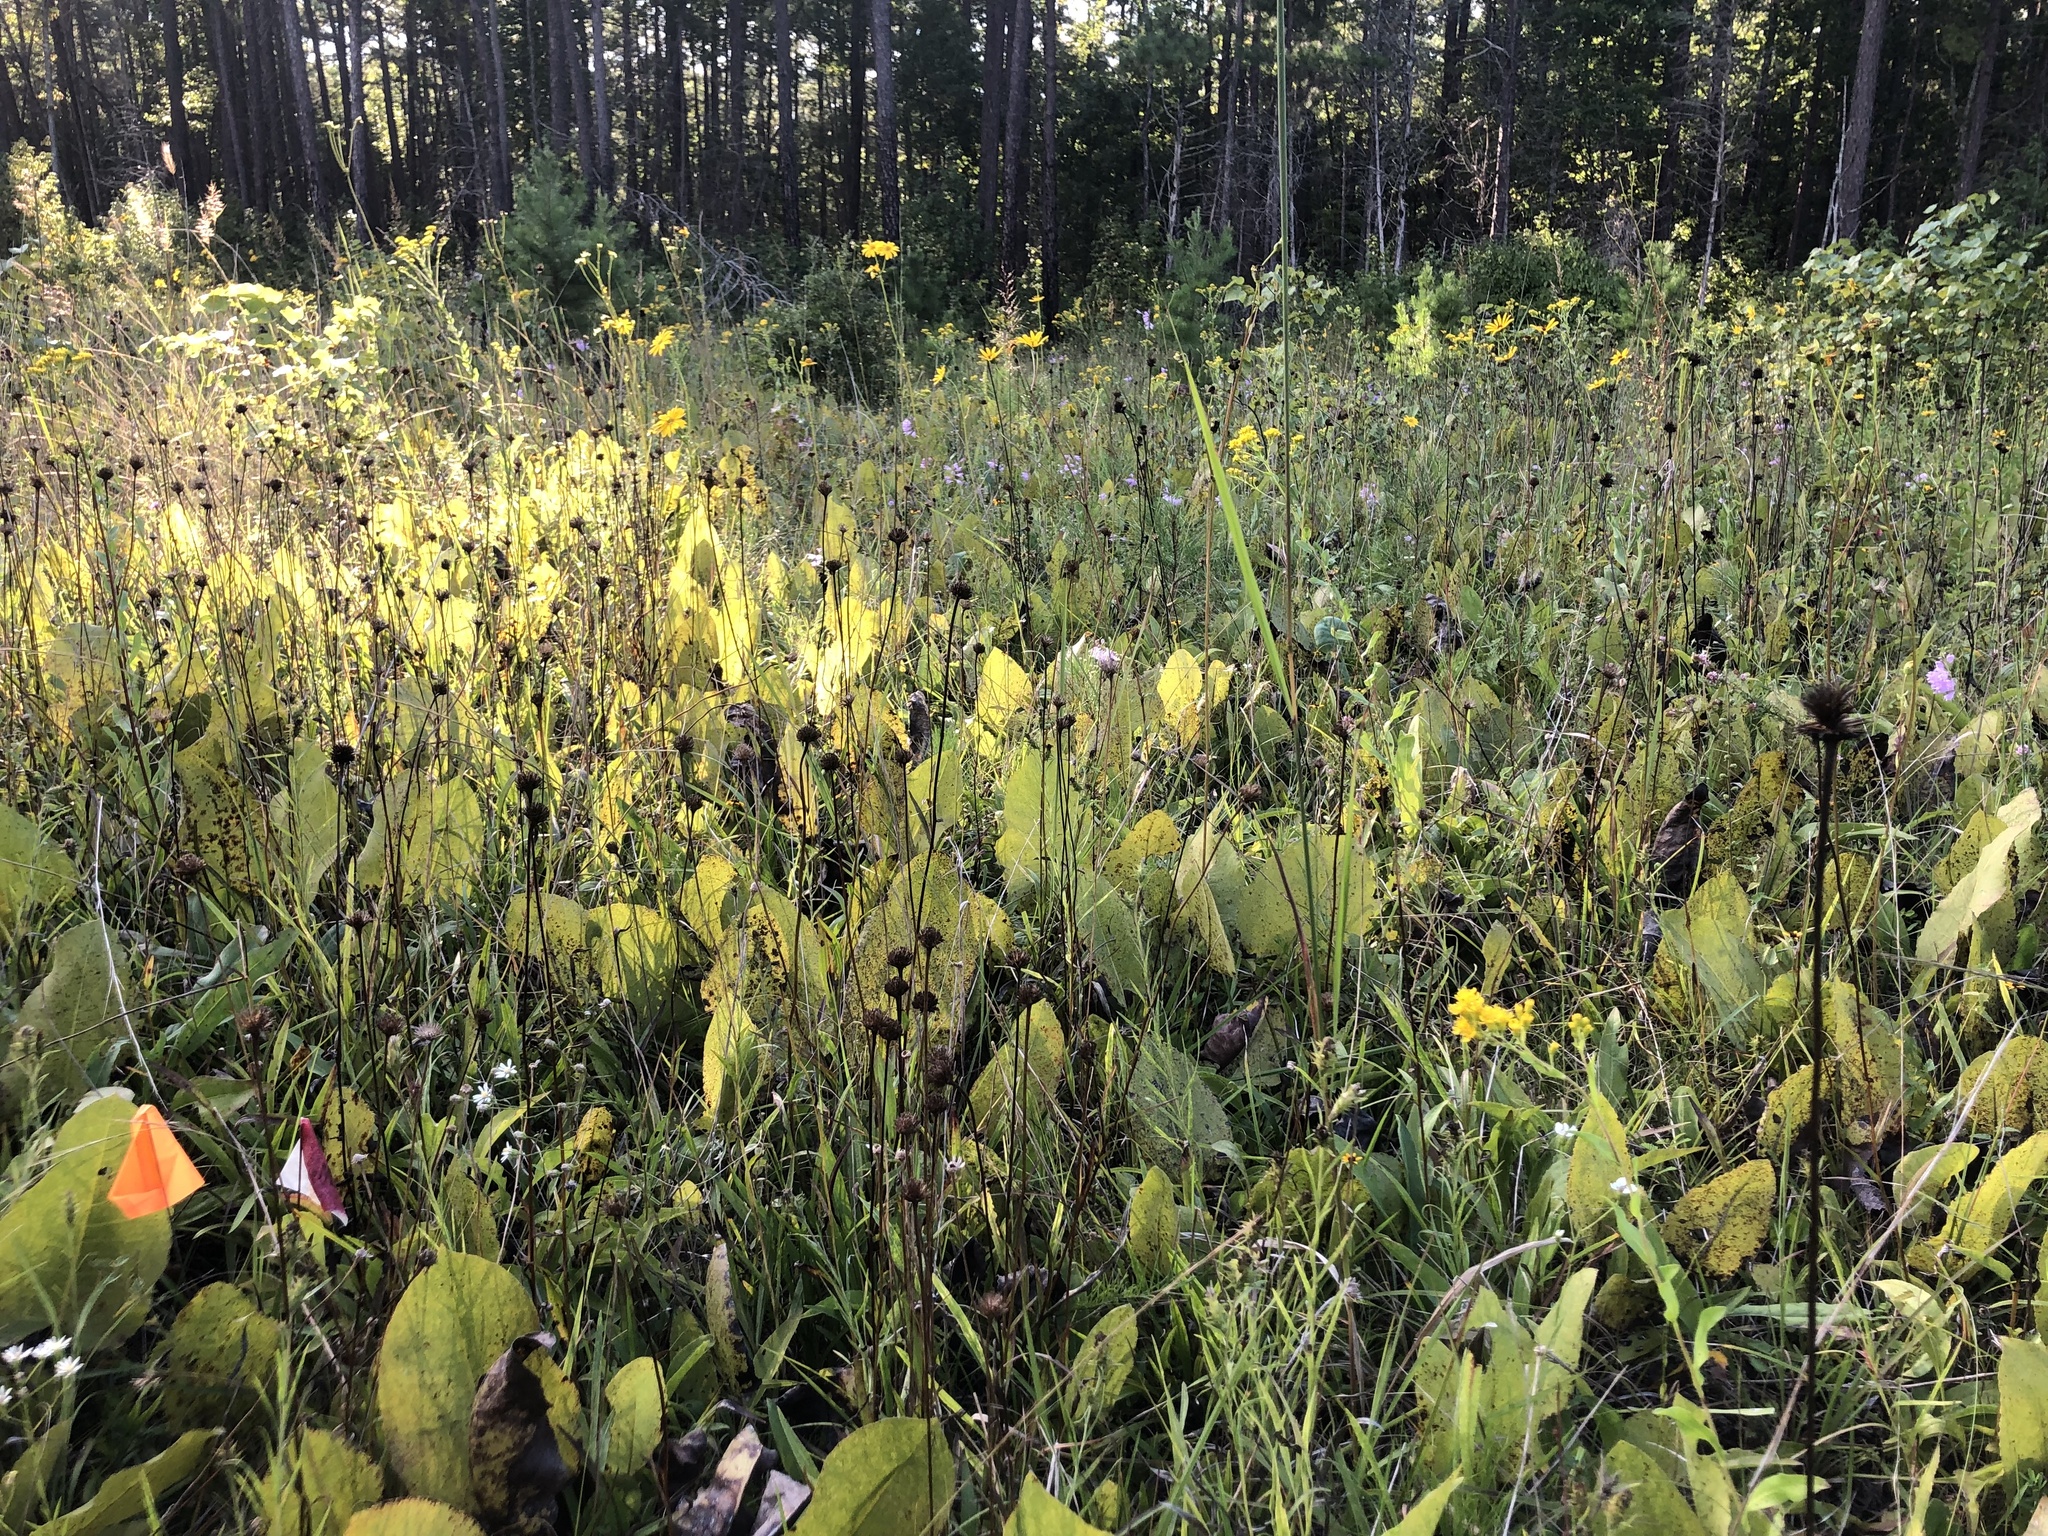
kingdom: Plantae
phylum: Tracheophyta
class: Magnoliopsida
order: Asterales
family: Asteraceae
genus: Marshallia
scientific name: Marshallia legrandii
